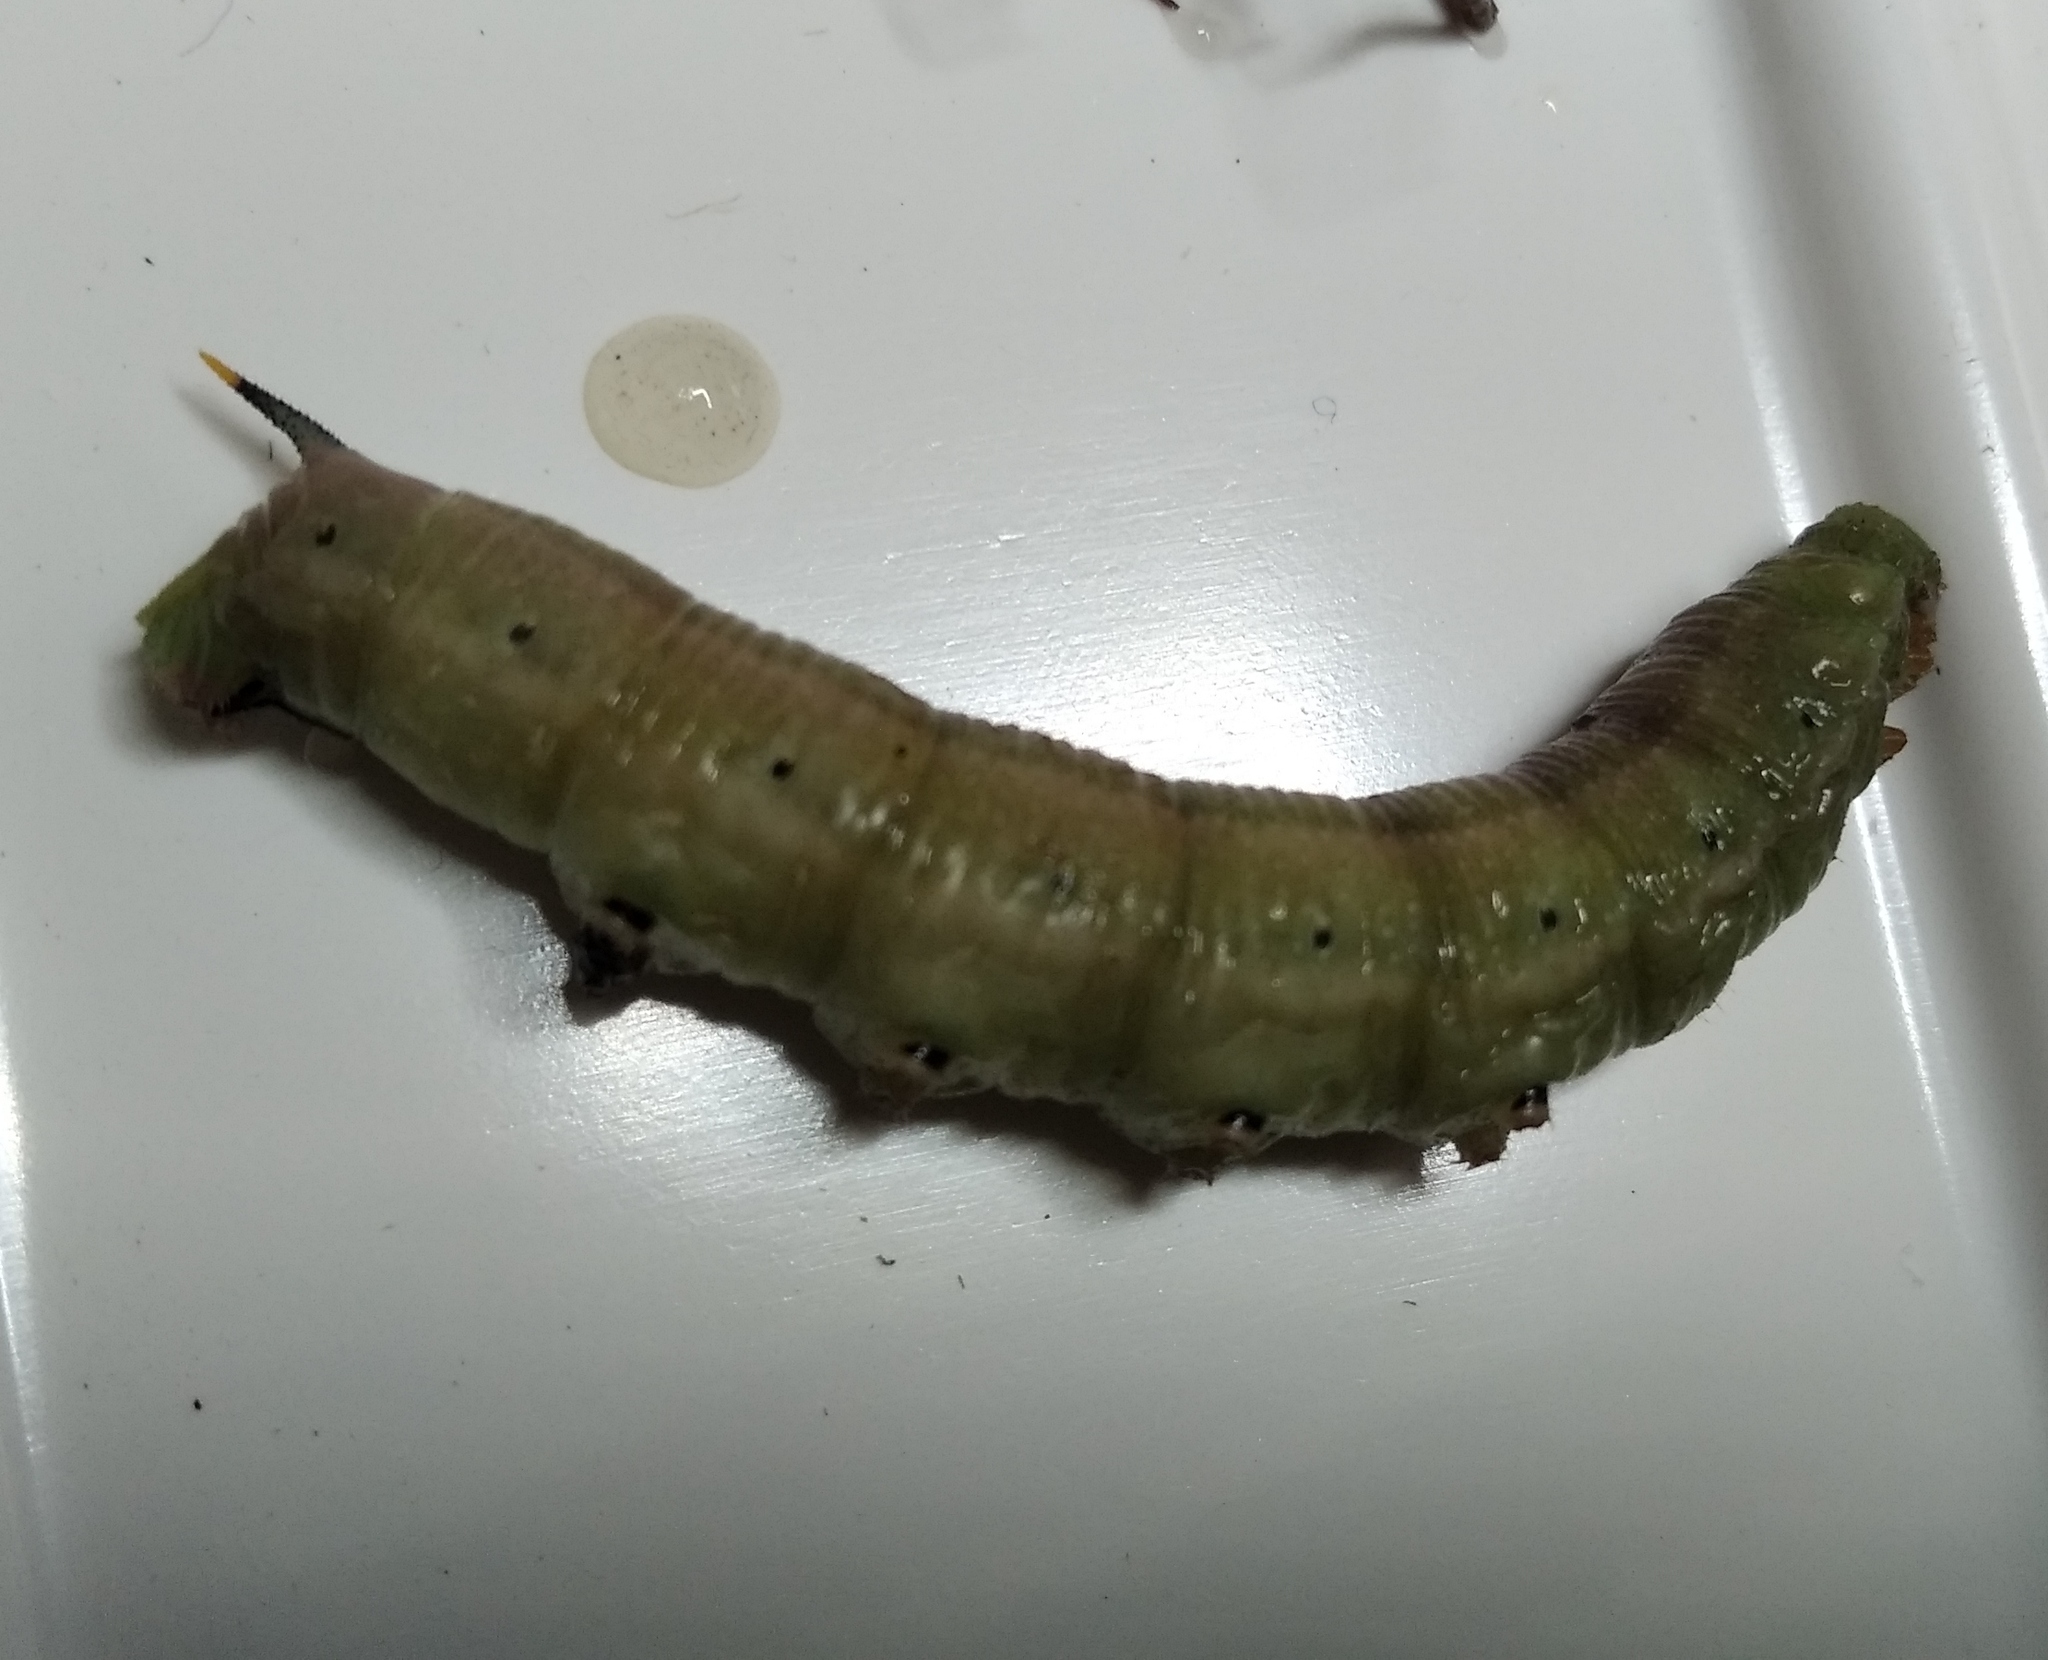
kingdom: Animalia
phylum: Arthropoda
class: Insecta
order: Lepidoptera
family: Sphingidae
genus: Macroglossum
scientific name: Macroglossum stellatarum
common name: Humming-bird hawk-moth
